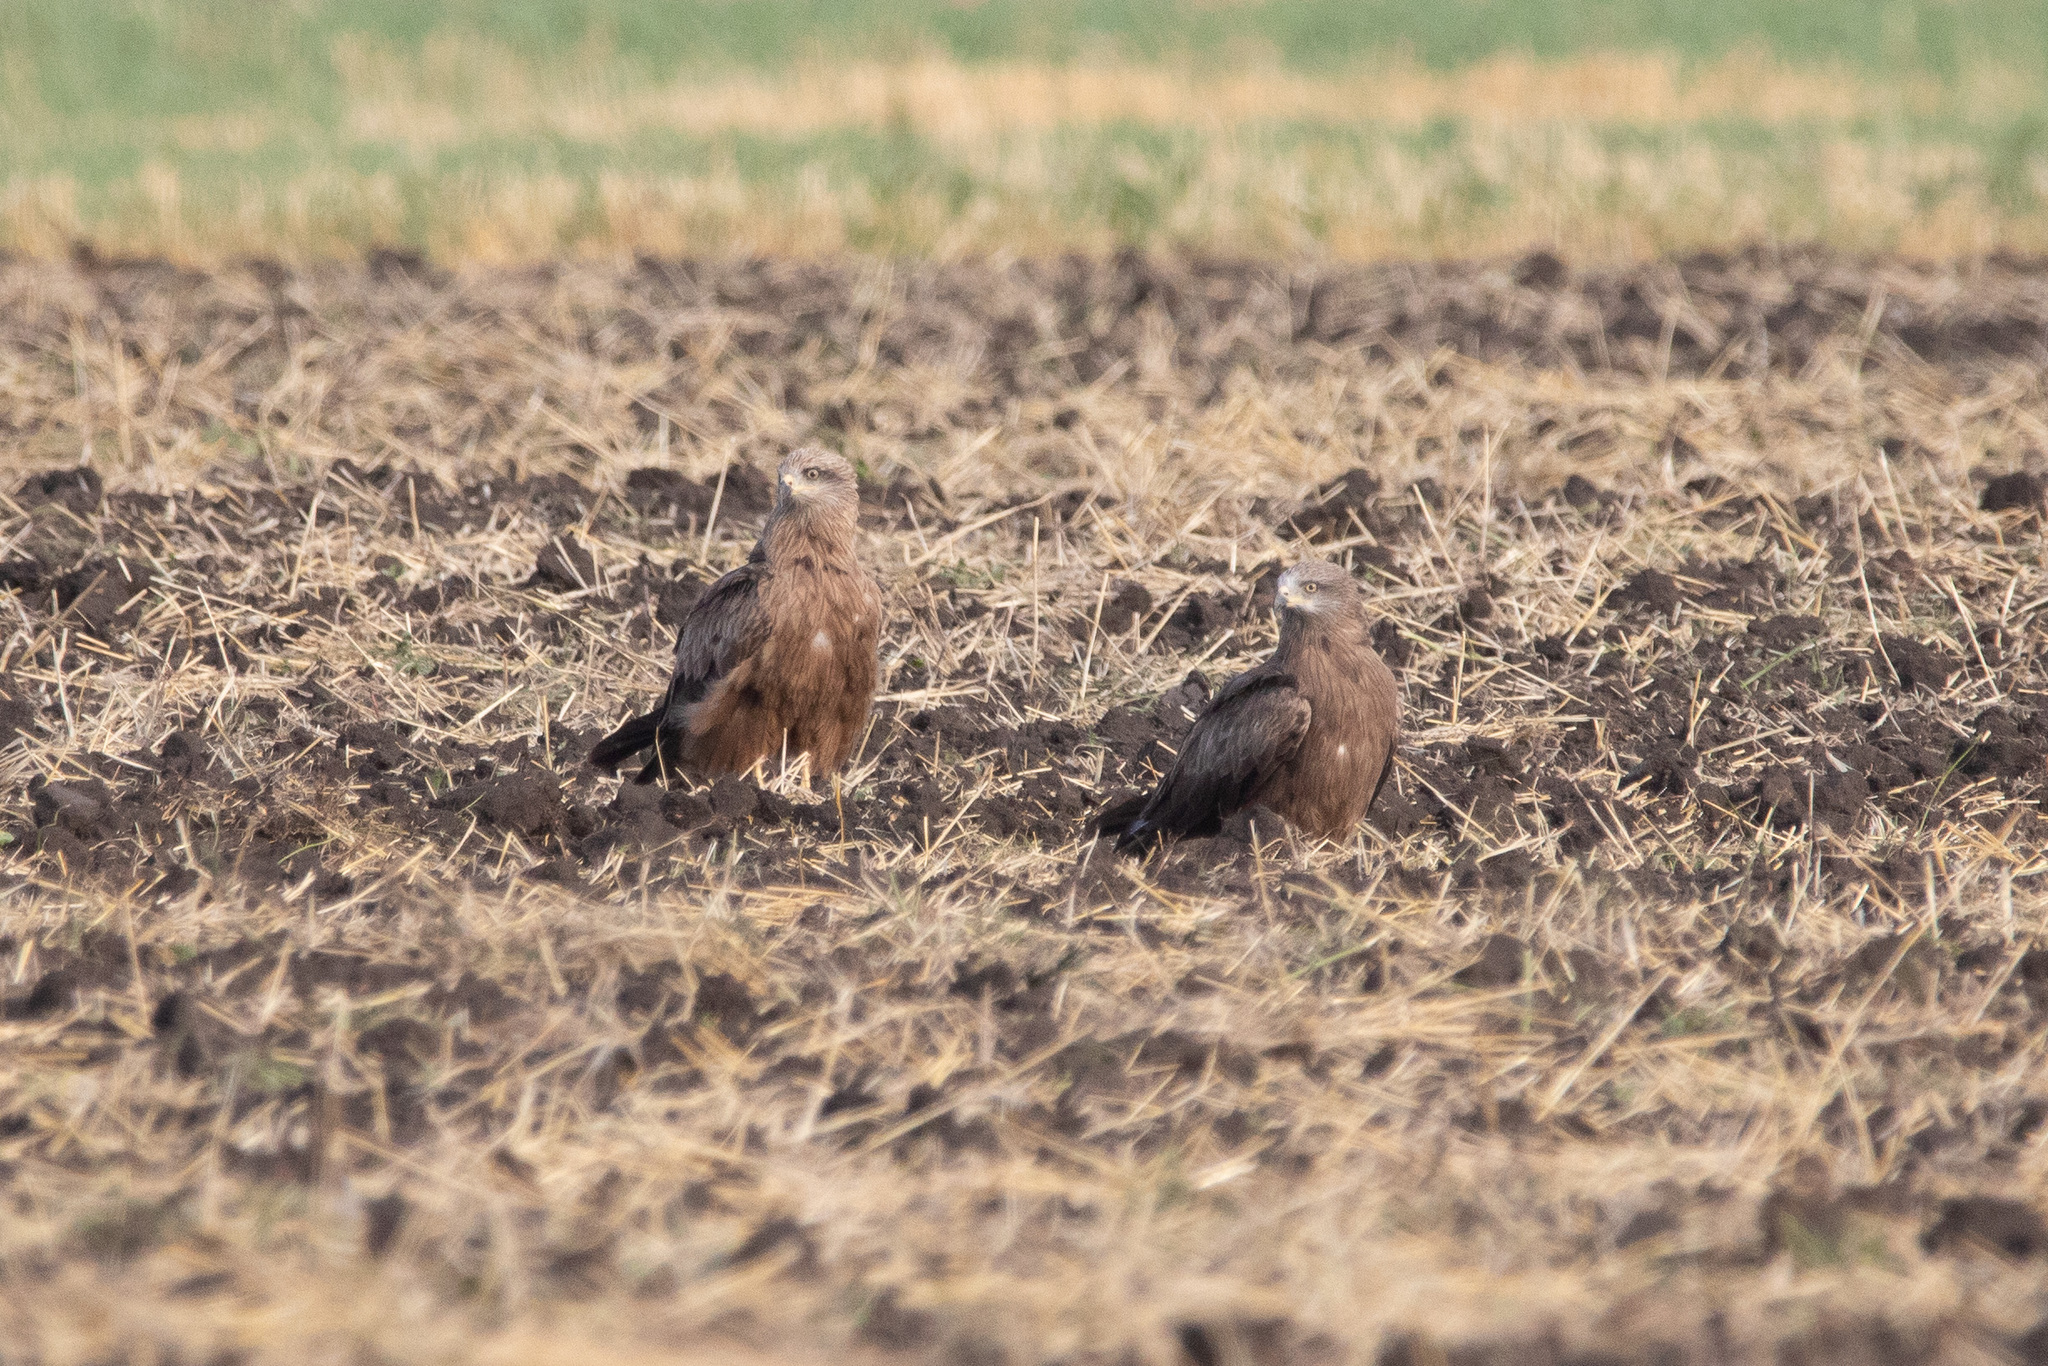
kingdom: Animalia
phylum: Chordata
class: Aves
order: Accipitriformes
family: Accipitridae
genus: Milvus
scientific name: Milvus migrans
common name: Black kite
